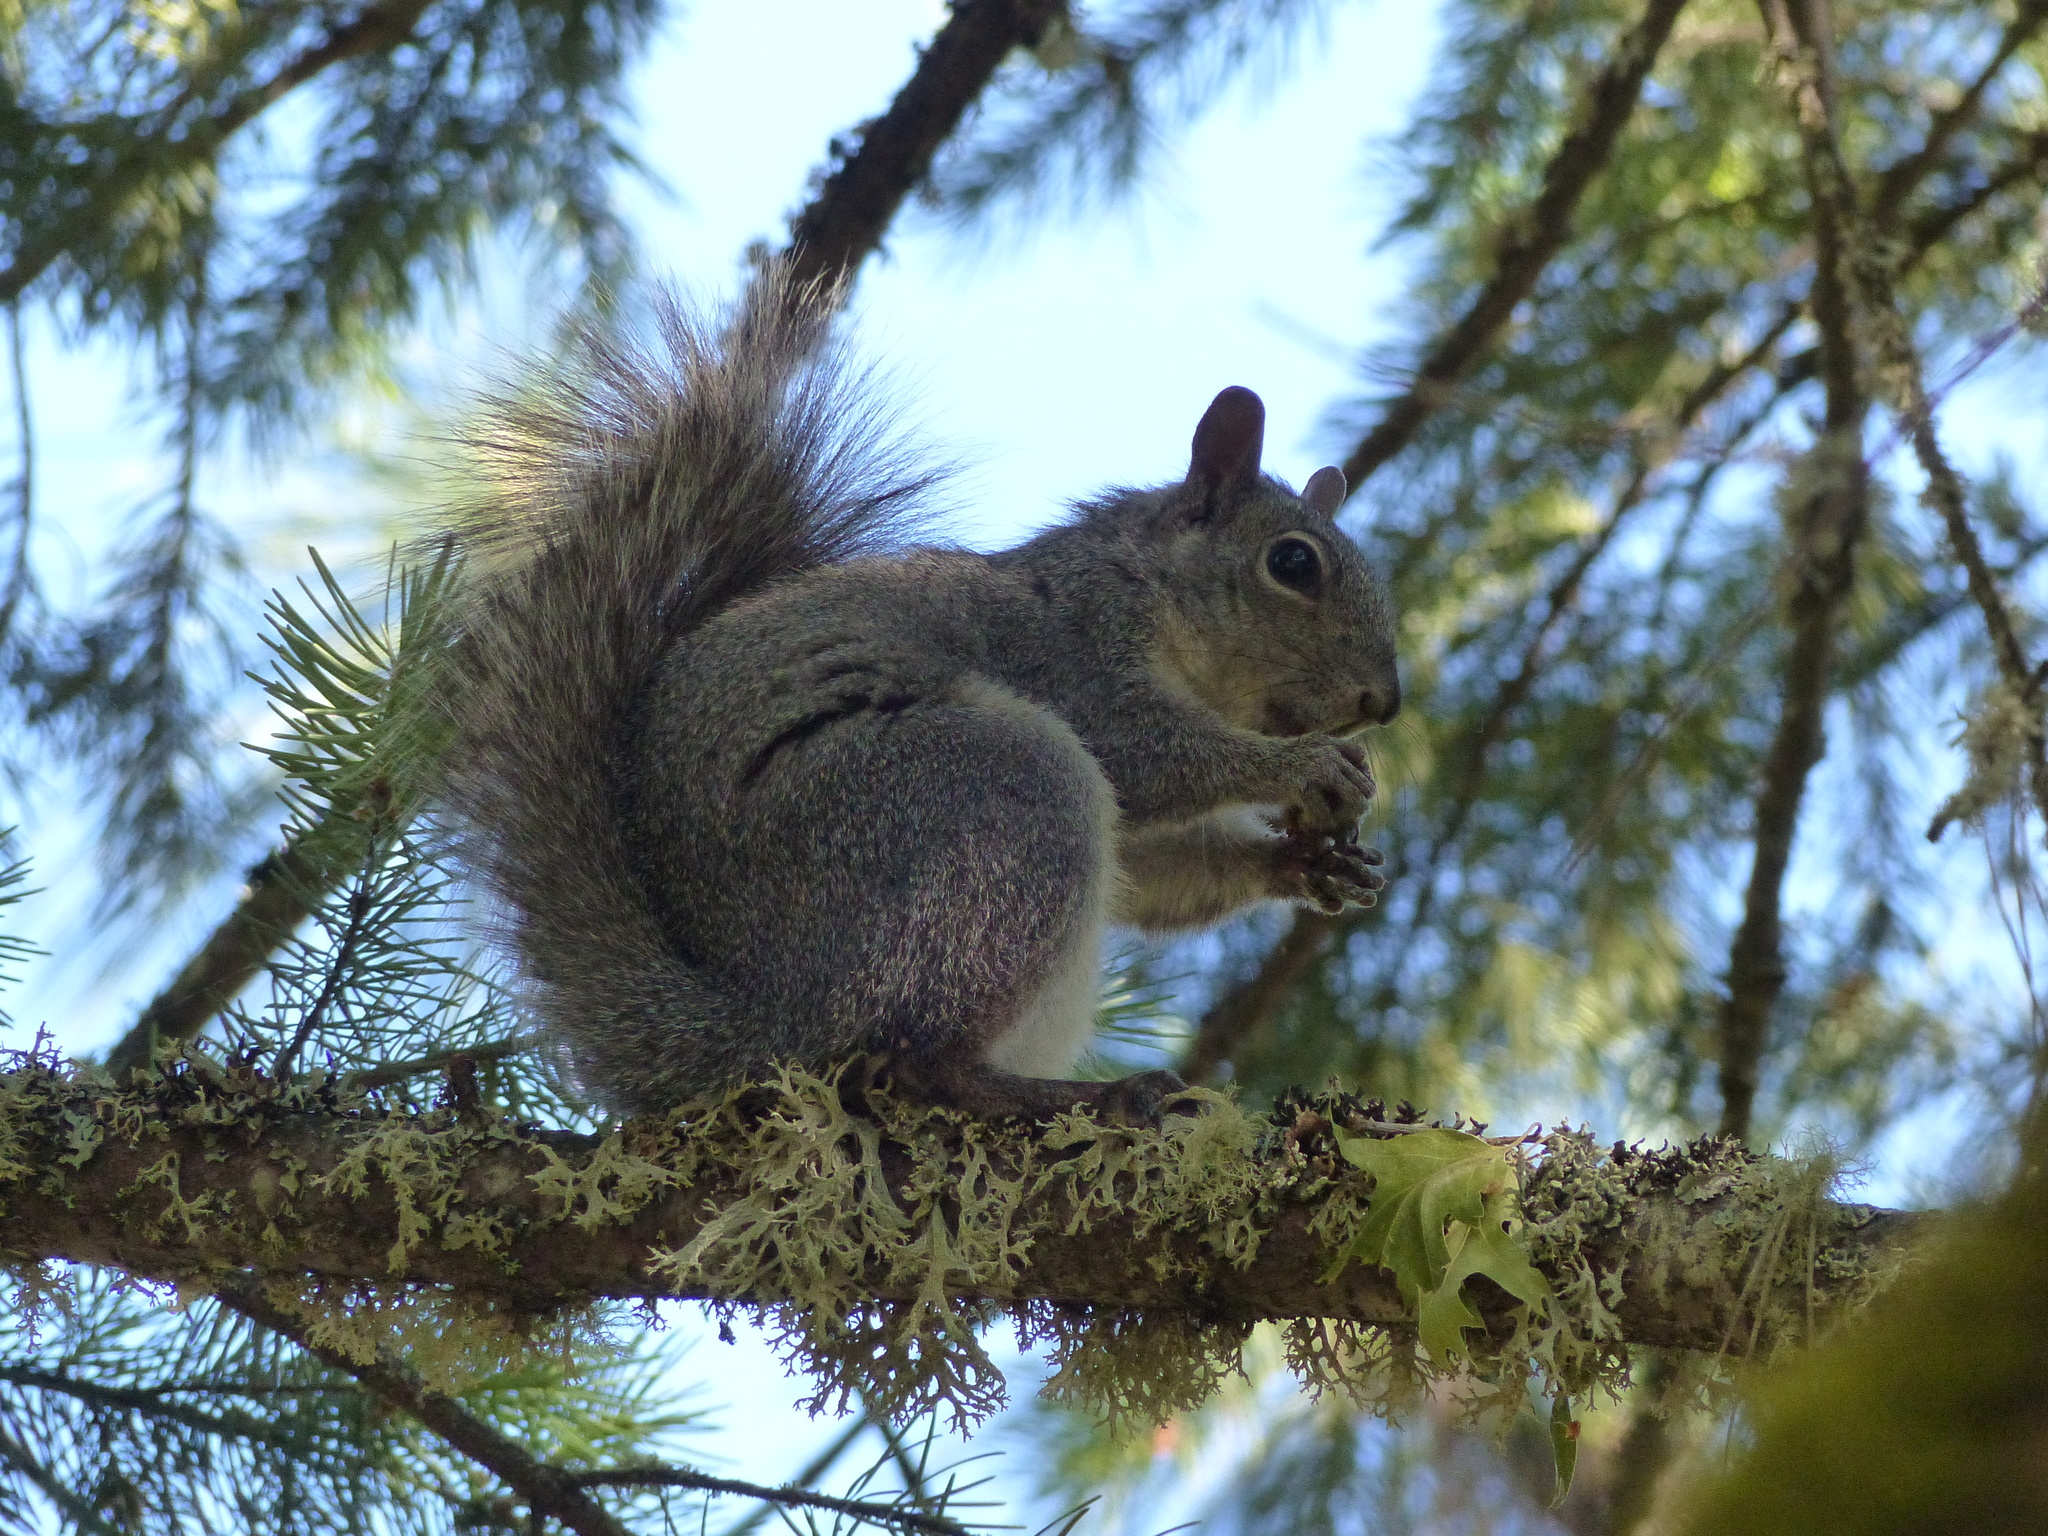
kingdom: Animalia
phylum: Chordata
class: Mammalia
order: Rodentia
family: Sciuridae
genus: Sciurus
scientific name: Sciurus griseus
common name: Western gray squirrel
